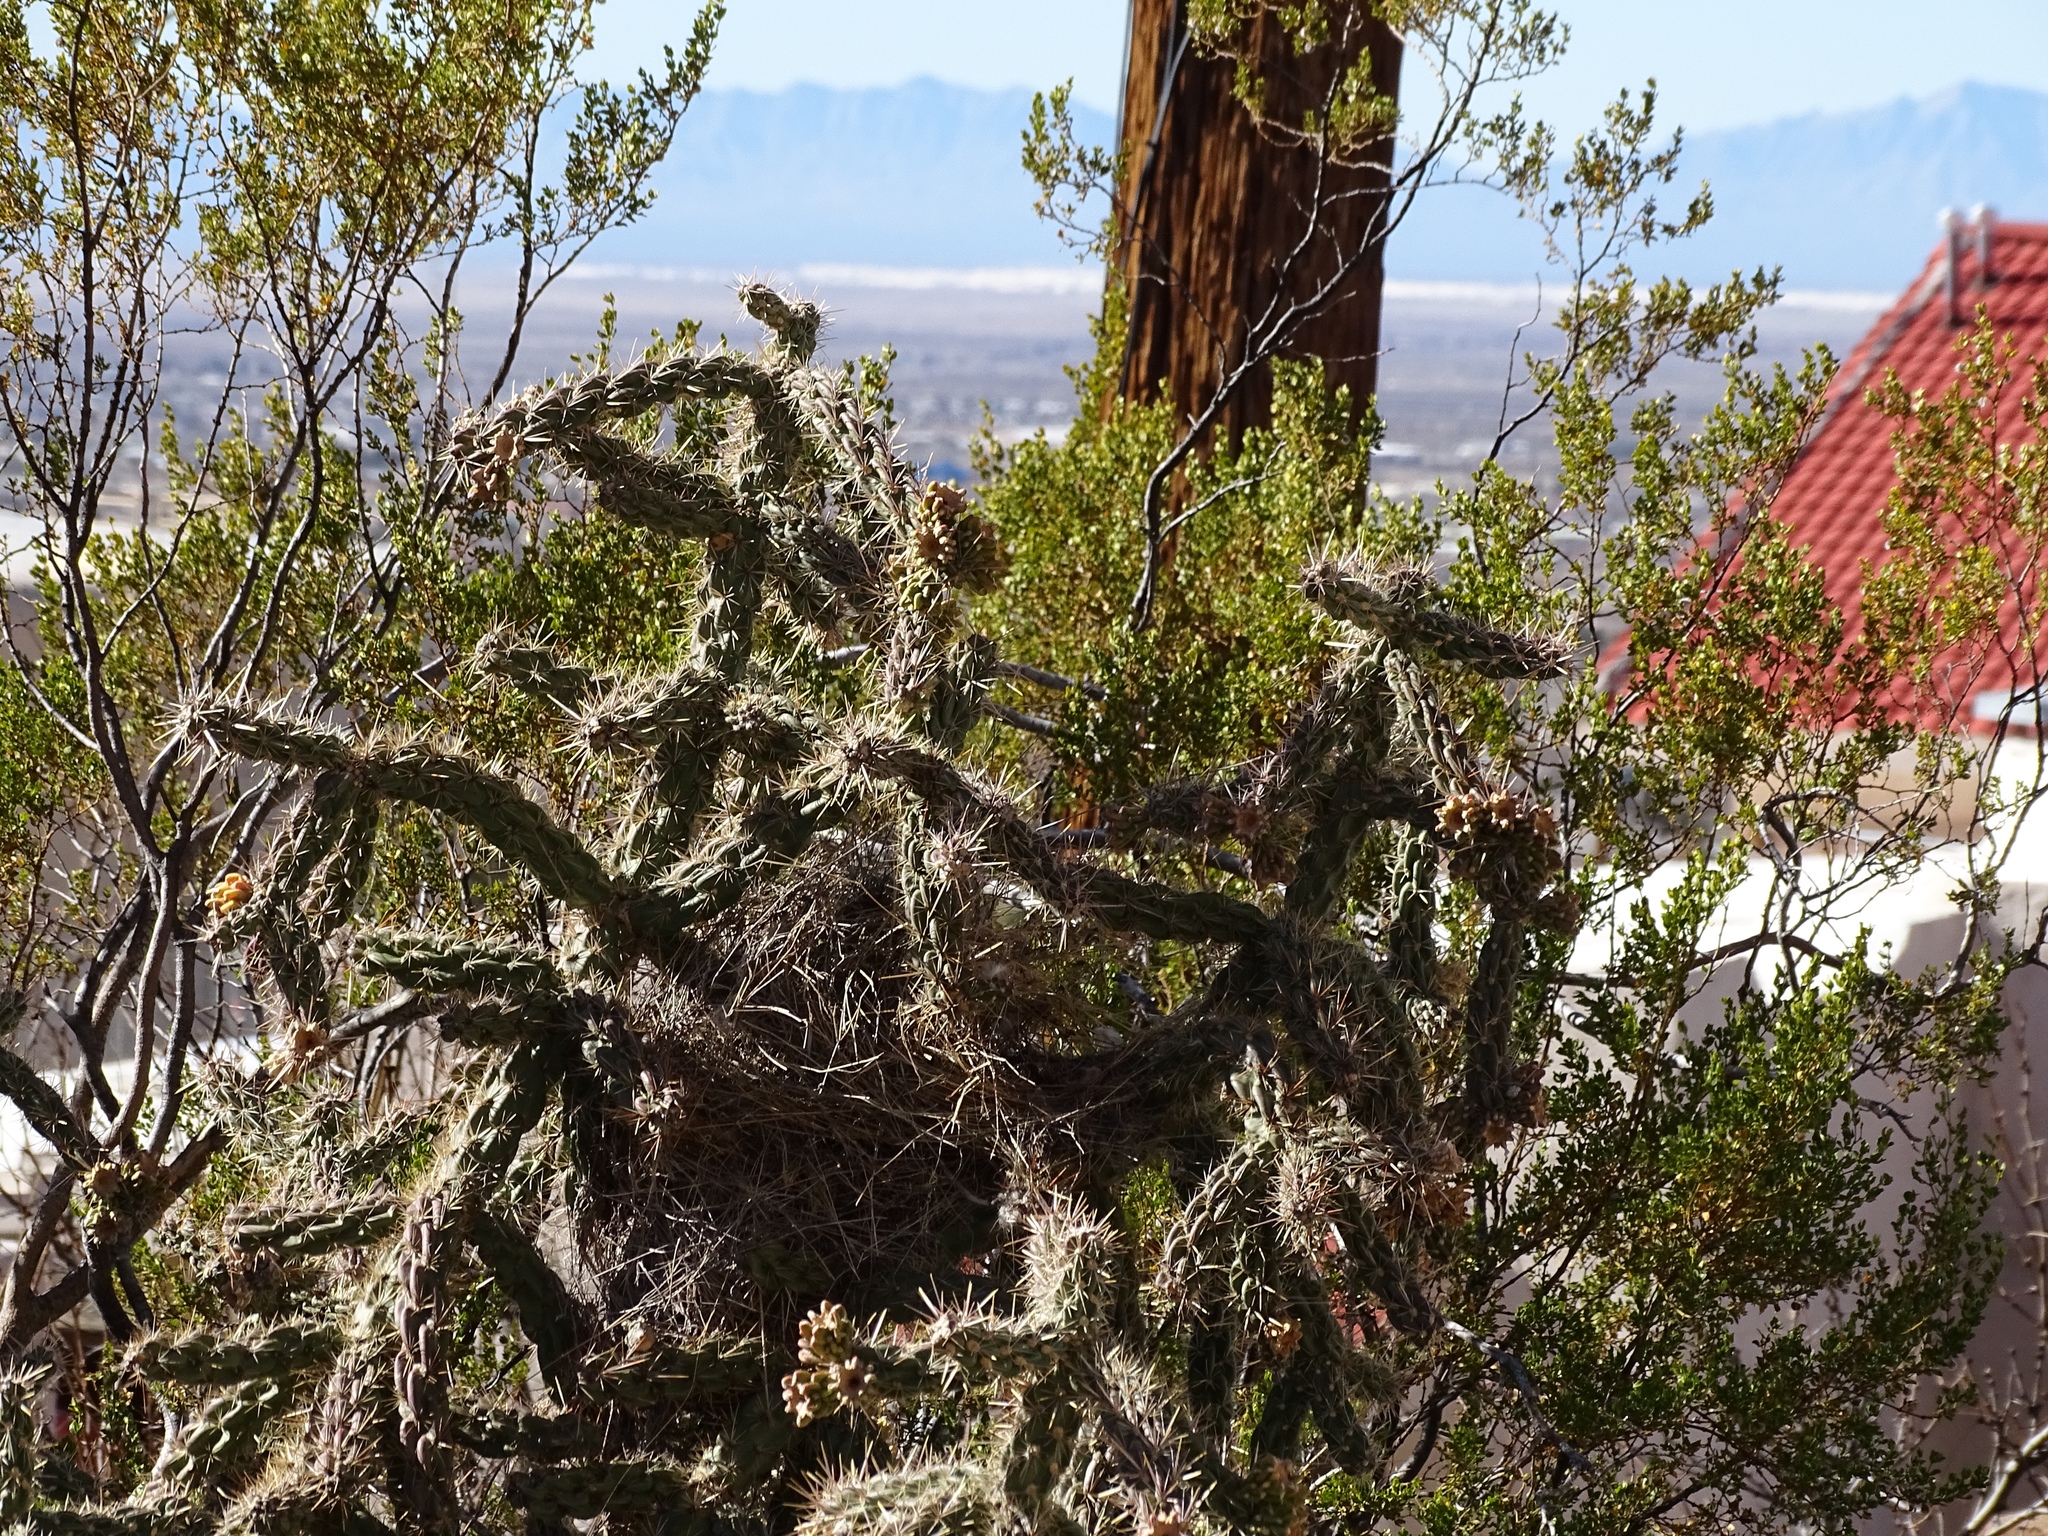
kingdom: Plantae
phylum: Tracheophyta
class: Magnoliopsida
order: Caryophyllales
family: Cactaceae
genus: Cylindropuntia
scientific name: Cylindropuntia imbricata
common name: Candelabrum cactus
